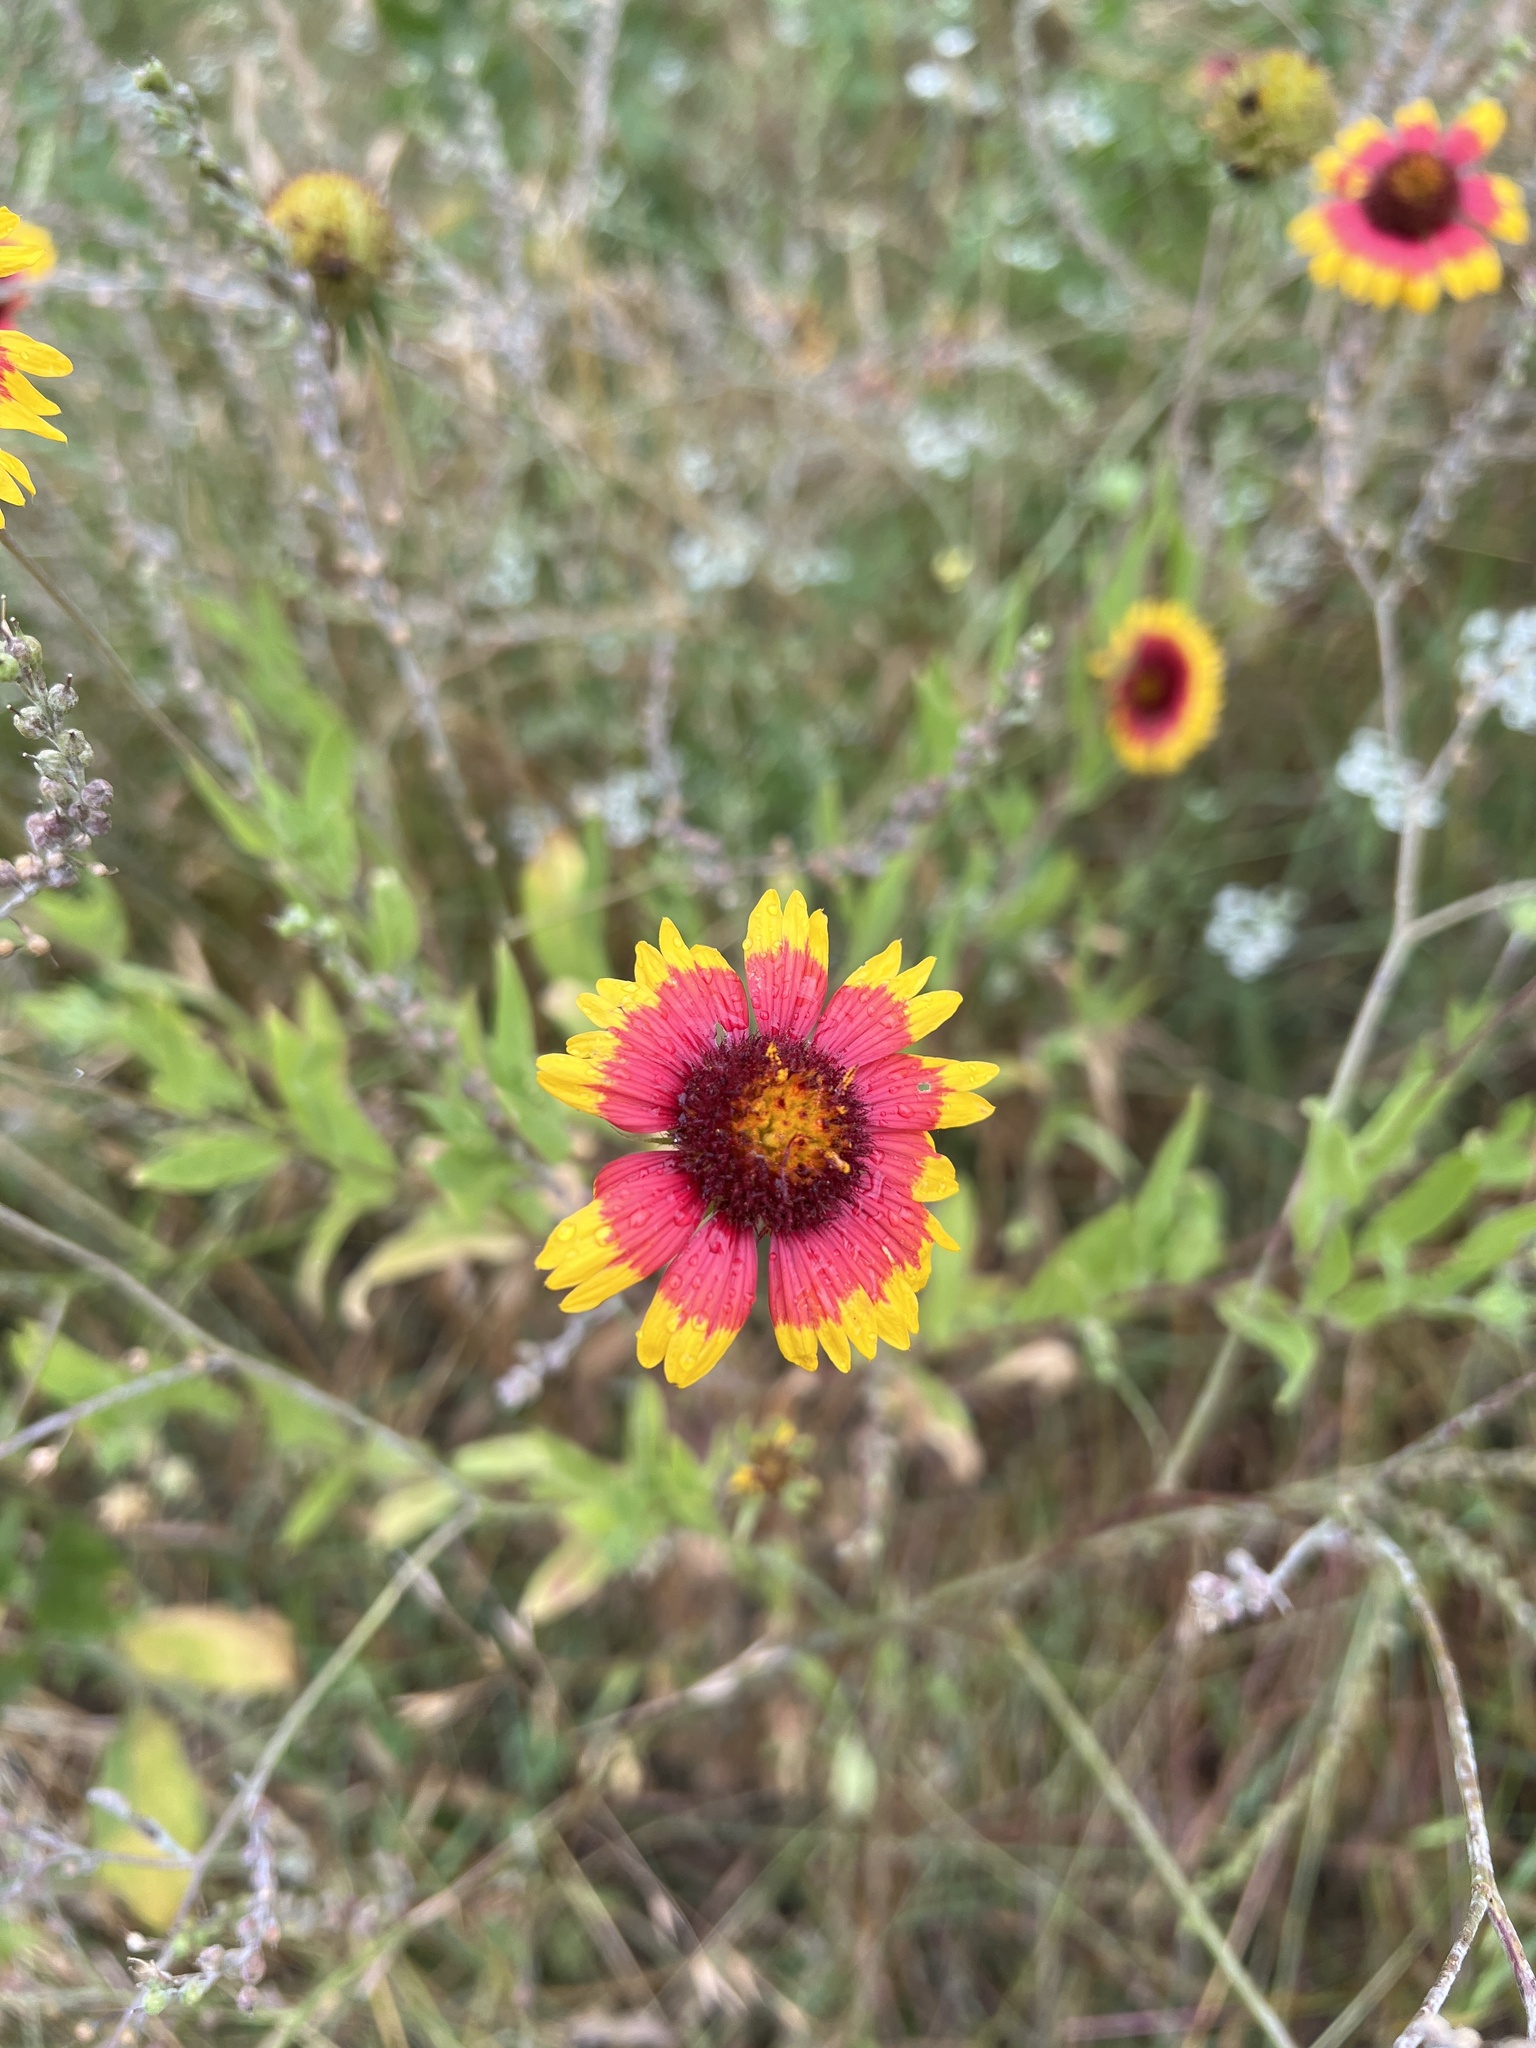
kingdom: Plantae
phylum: Tracheophyta
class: Magnoliopsida
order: Asterales
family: Asteraceae
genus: Gaillardia
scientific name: Gaillardia pulchella
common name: Firewheel
